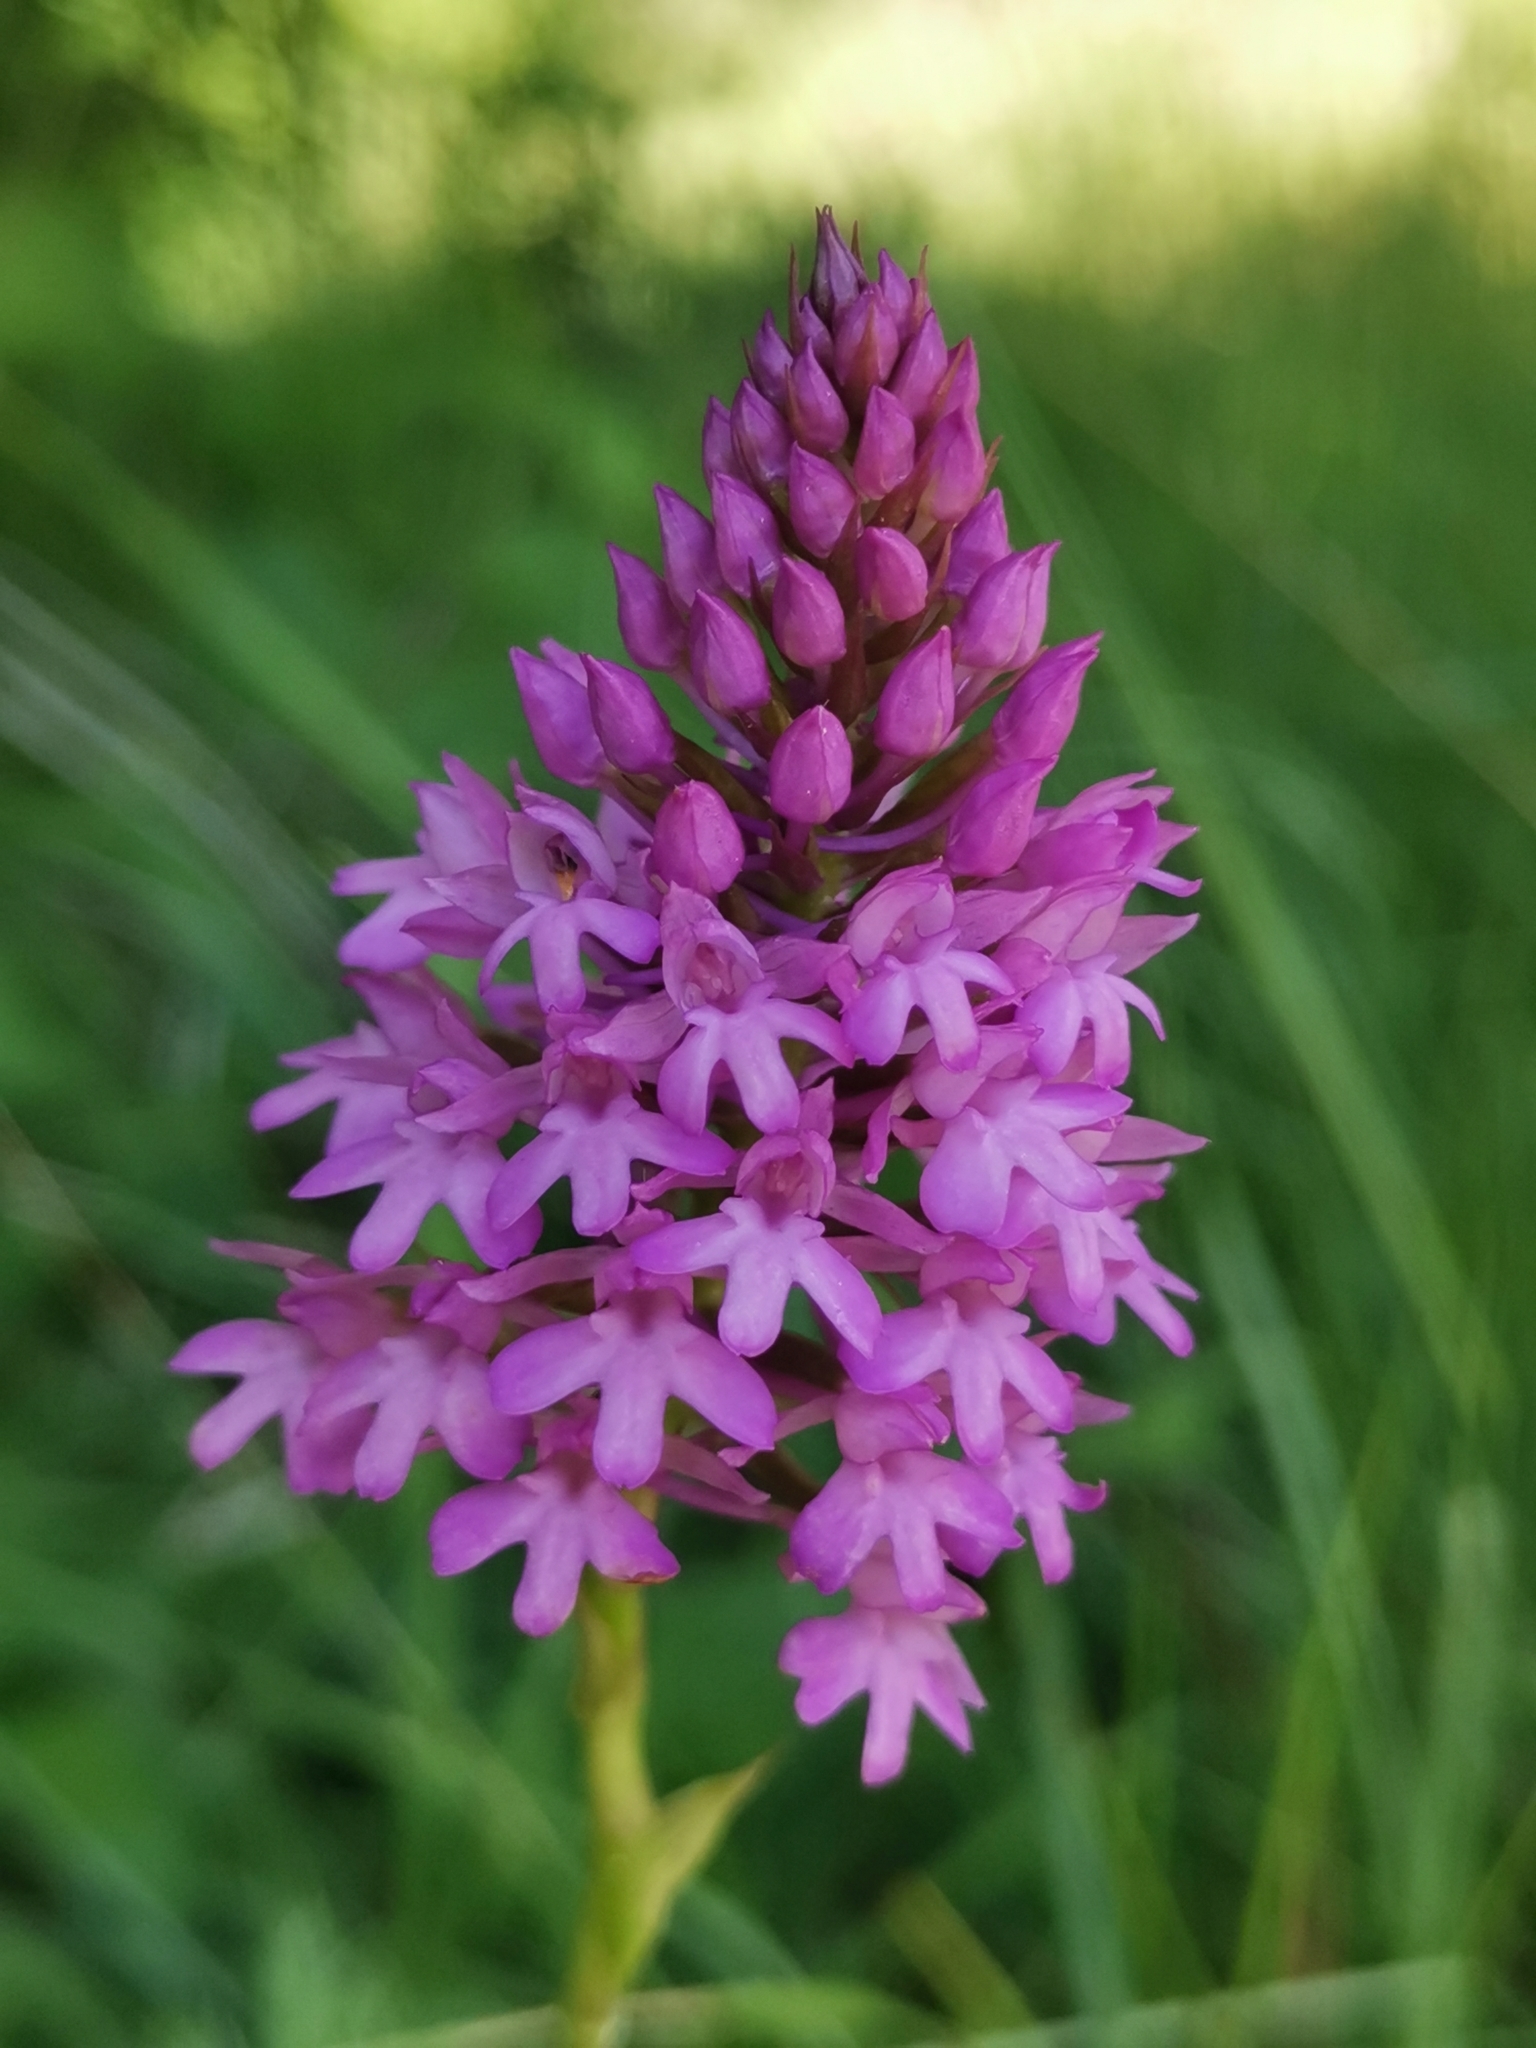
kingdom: Plantae
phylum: Tracheophyta
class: Liliopsida
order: Asparagales
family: Orchidaceae
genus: Anacamptis
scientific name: Anacamptis pyramidalis
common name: Pyramidal orchid
